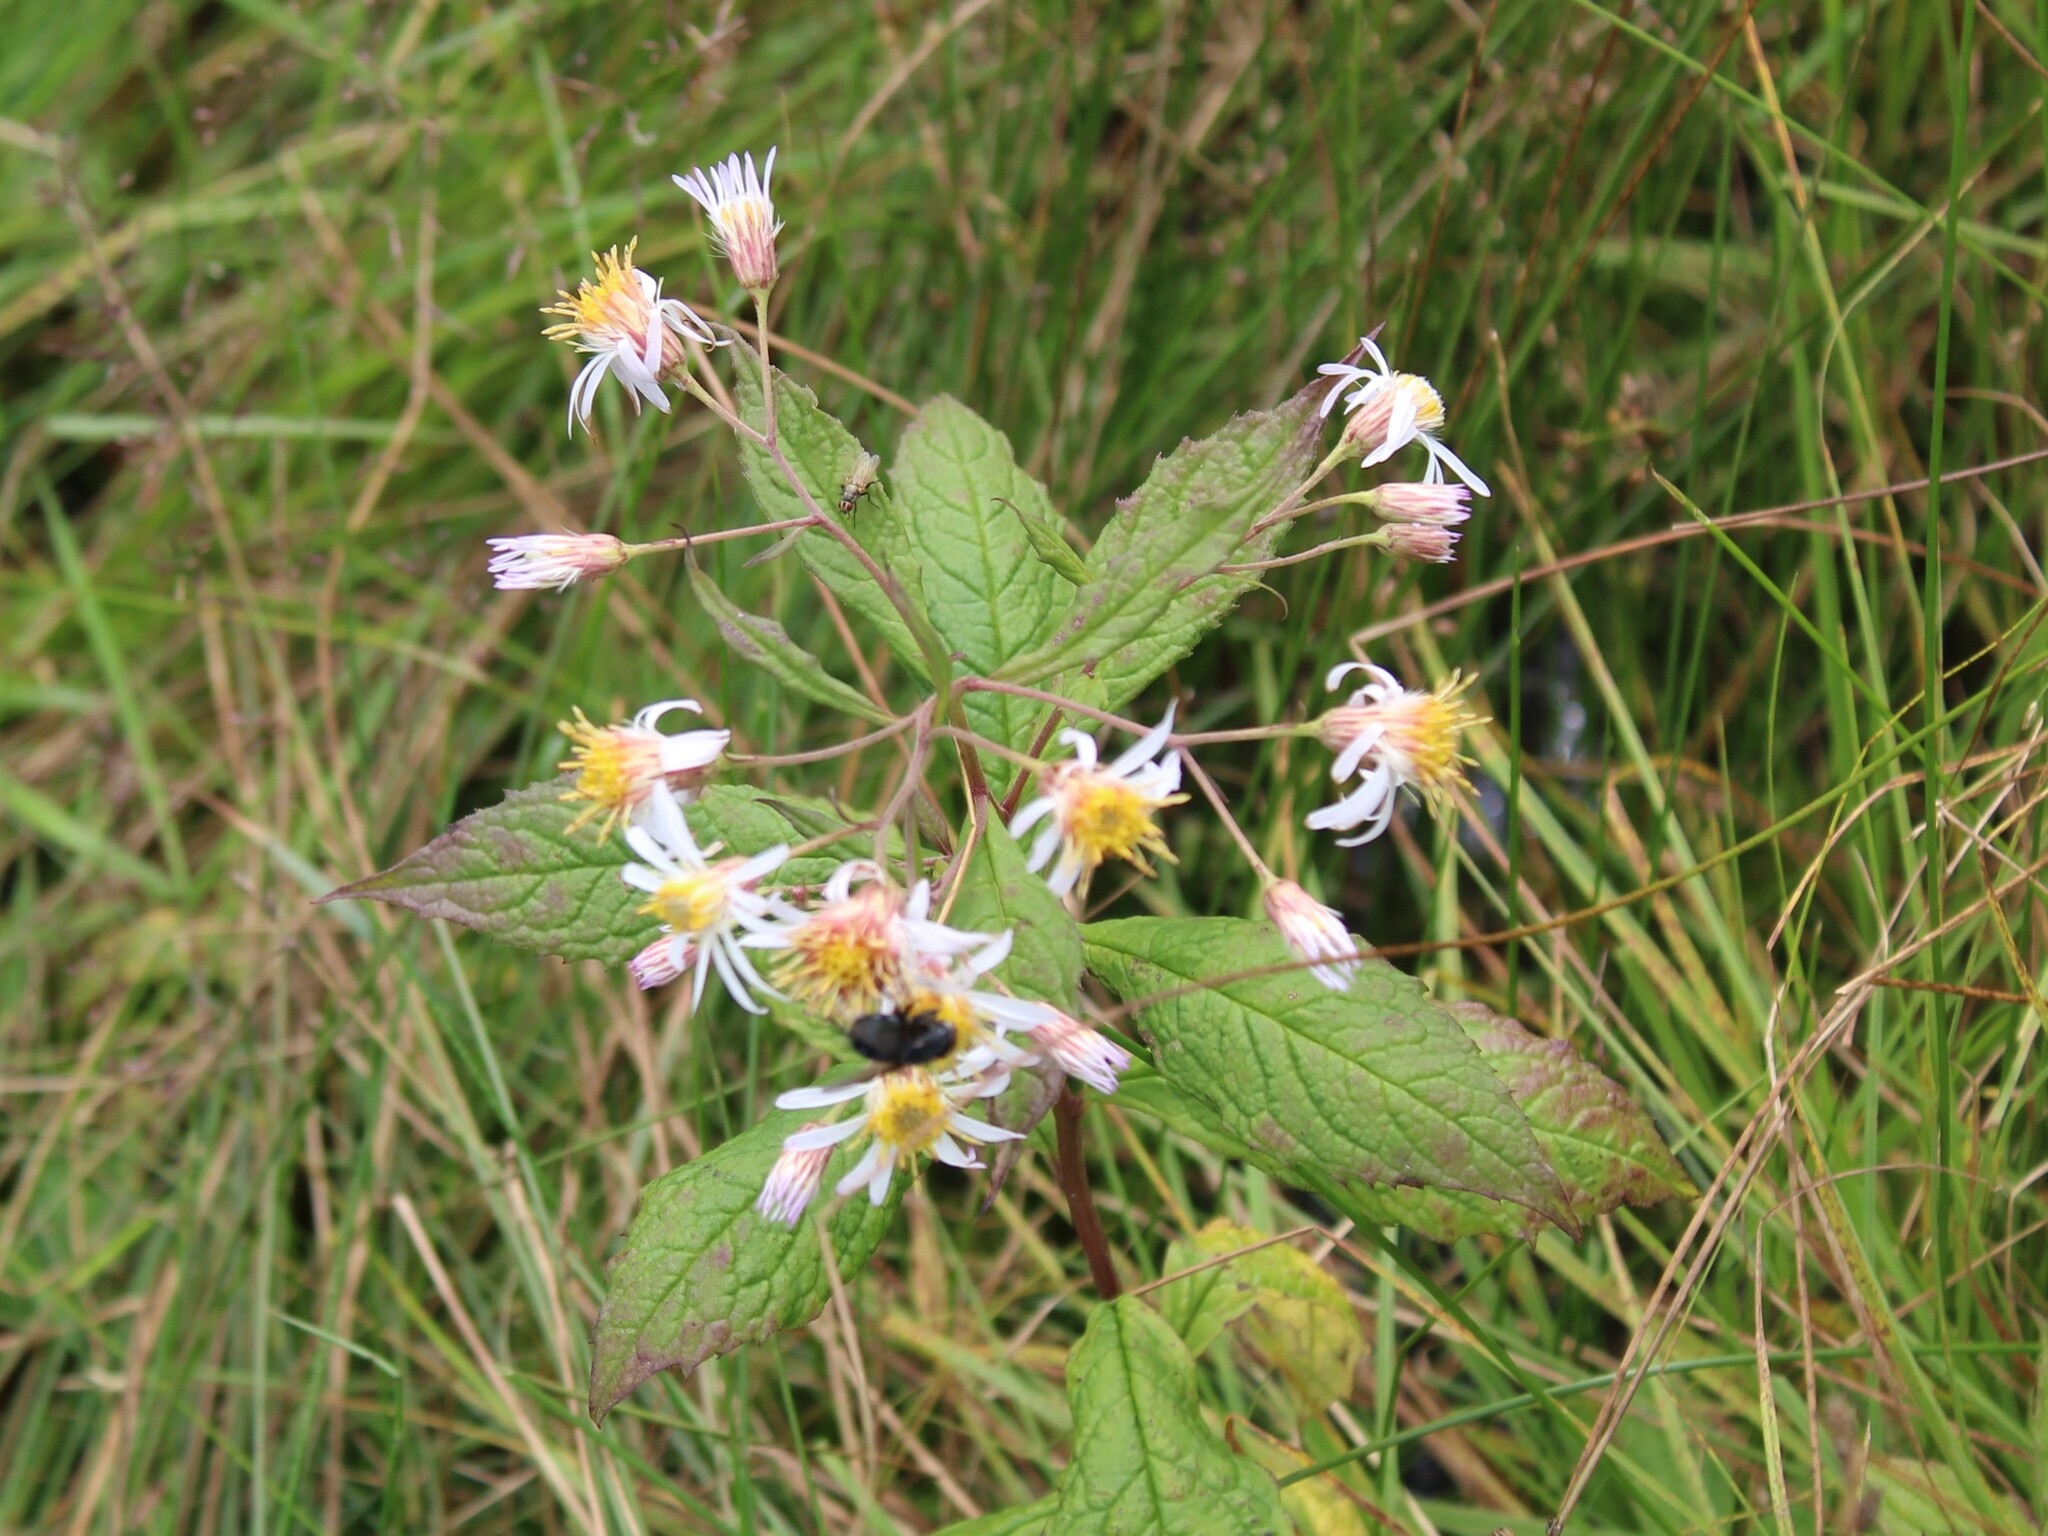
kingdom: Plantae
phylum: Tracheophyta
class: Magnoliopsida
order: Asterales
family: Asteraceae
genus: Oclemena
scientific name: Oclemena acuminata
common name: Mountain aster
